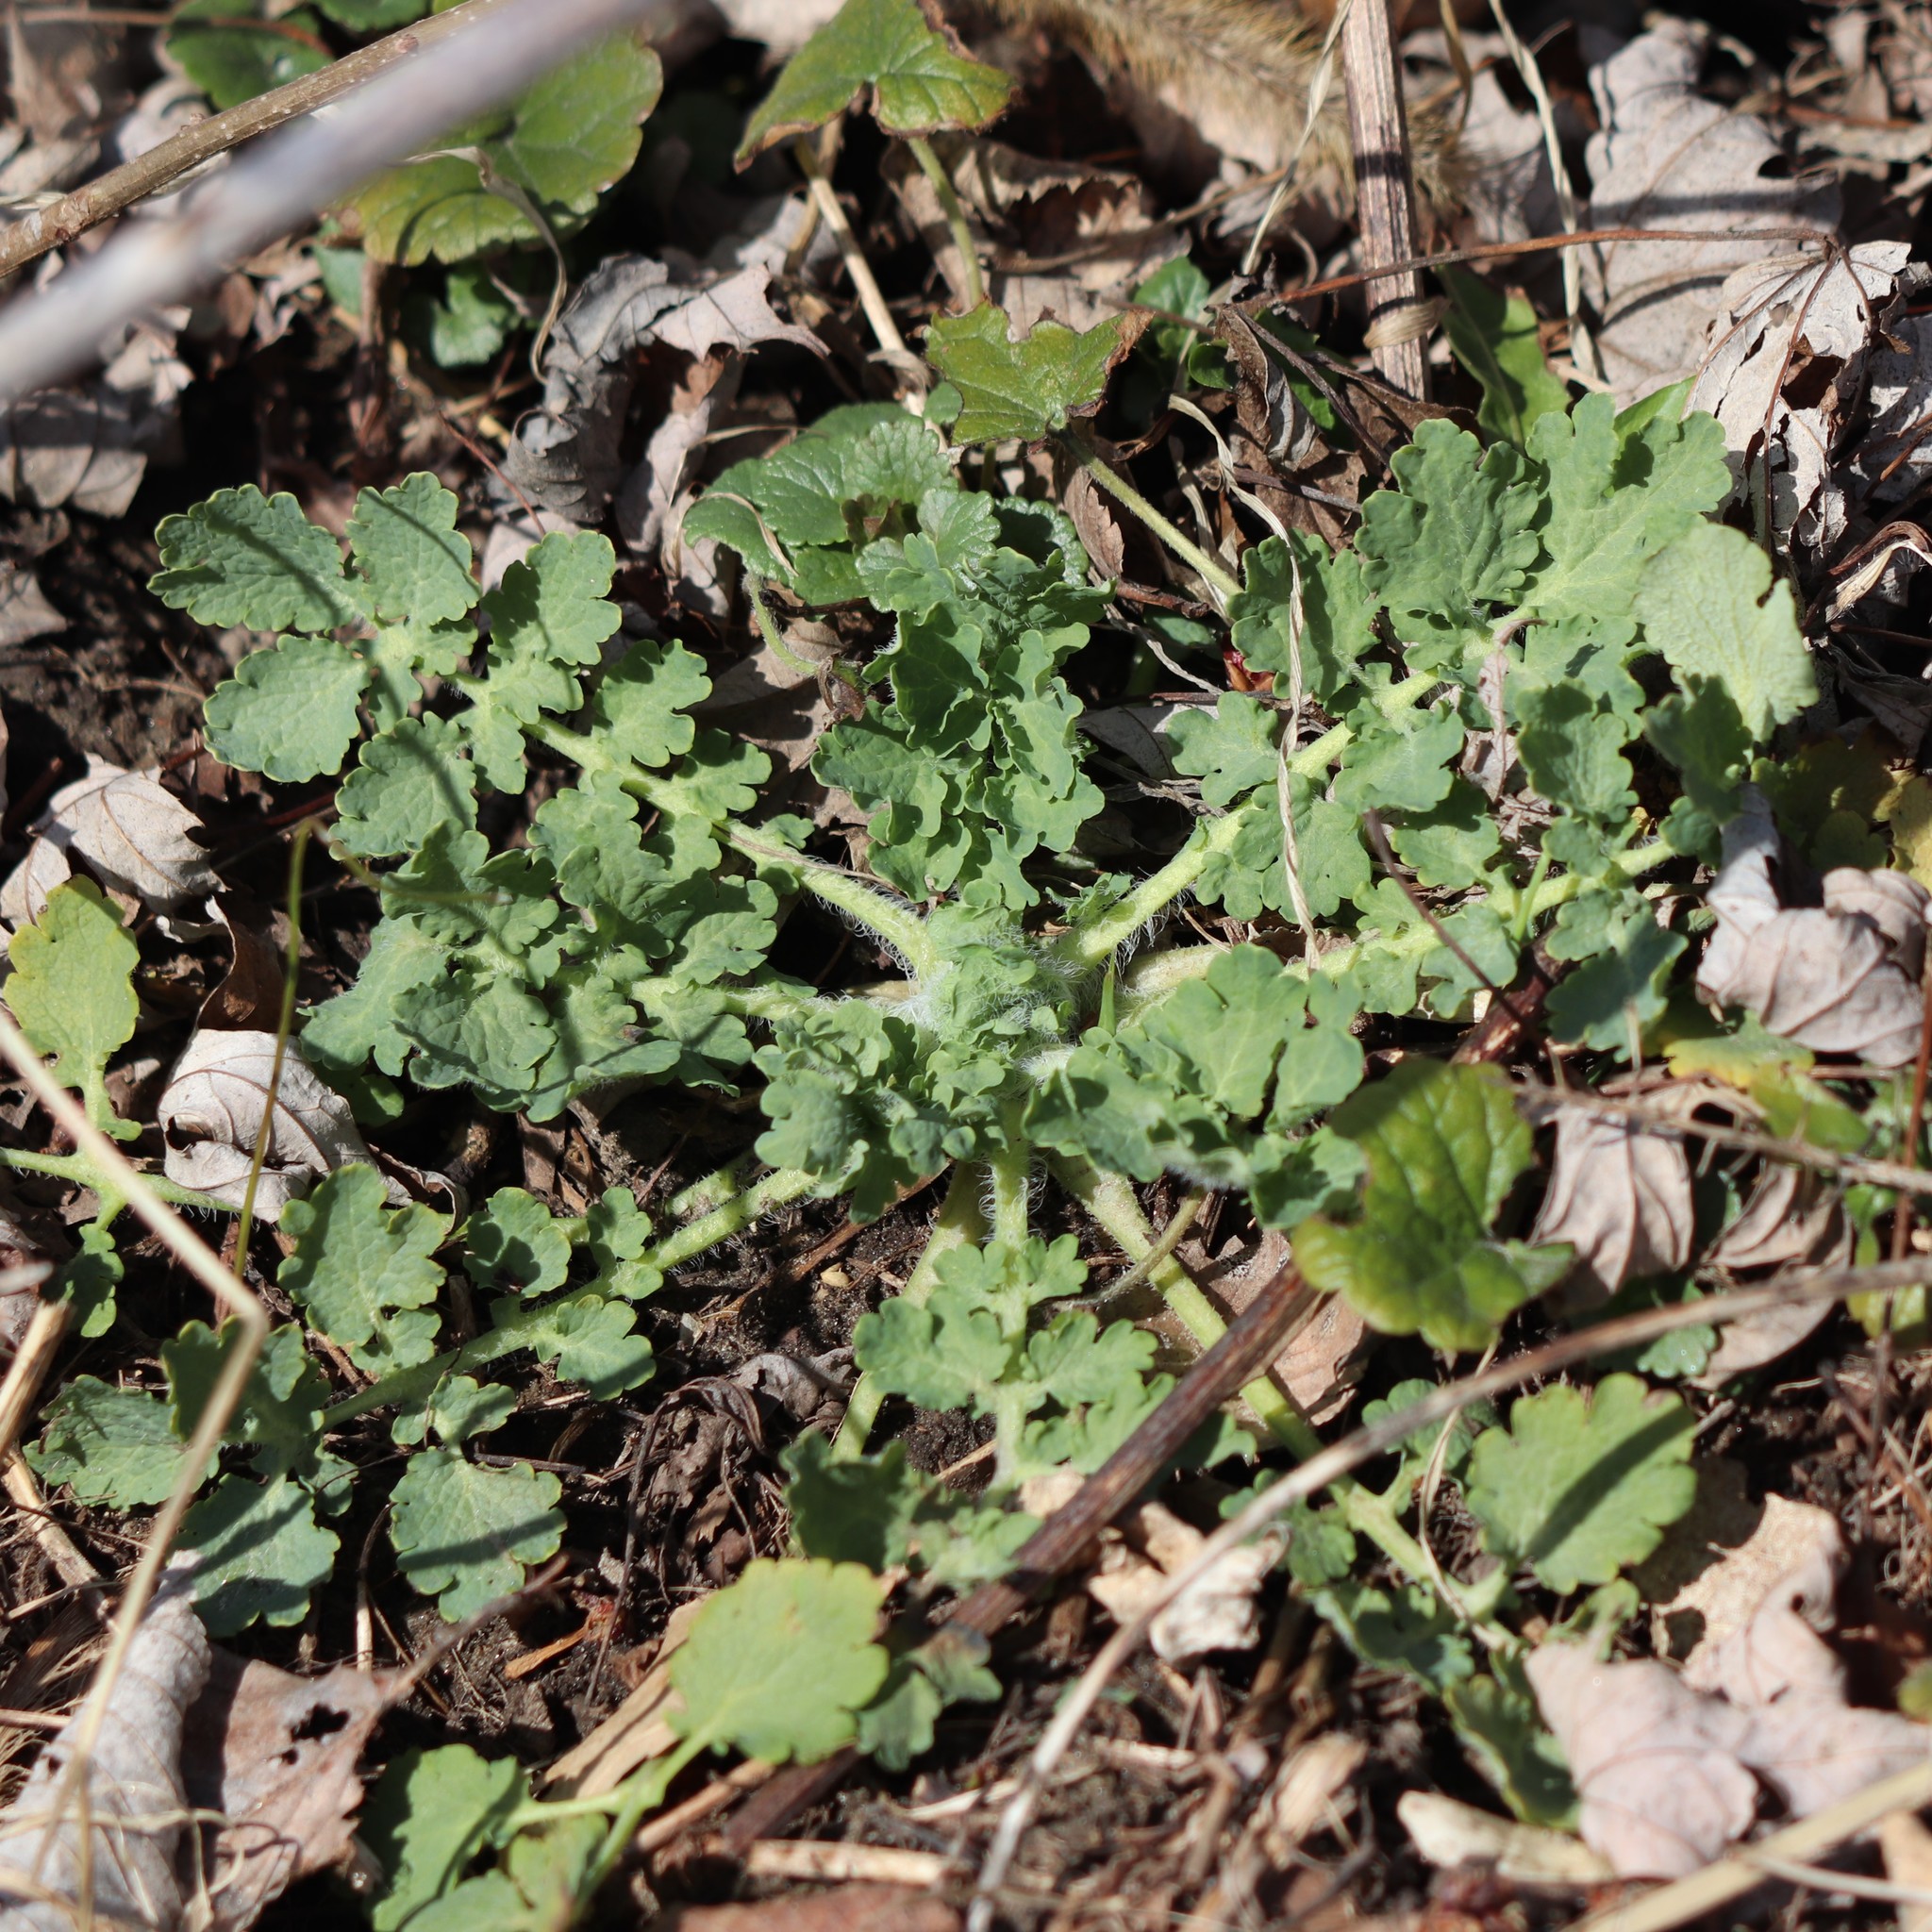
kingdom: Plantae
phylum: Tracheophyta
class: Magnoliopsida
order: Ranunculales
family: Papaveraceae
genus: Chelidonium
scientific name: Chelidonium majus
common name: Greater celandine
